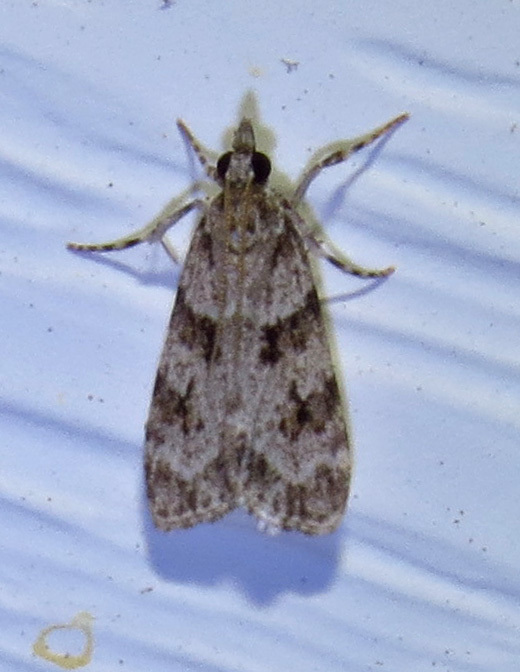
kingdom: Animalia
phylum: Arthropoda
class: Insecta
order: Lepidoptera
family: Crambidae
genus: Scoparia
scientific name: Scoparia biplagialis
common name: Double-striped scoparia moth
